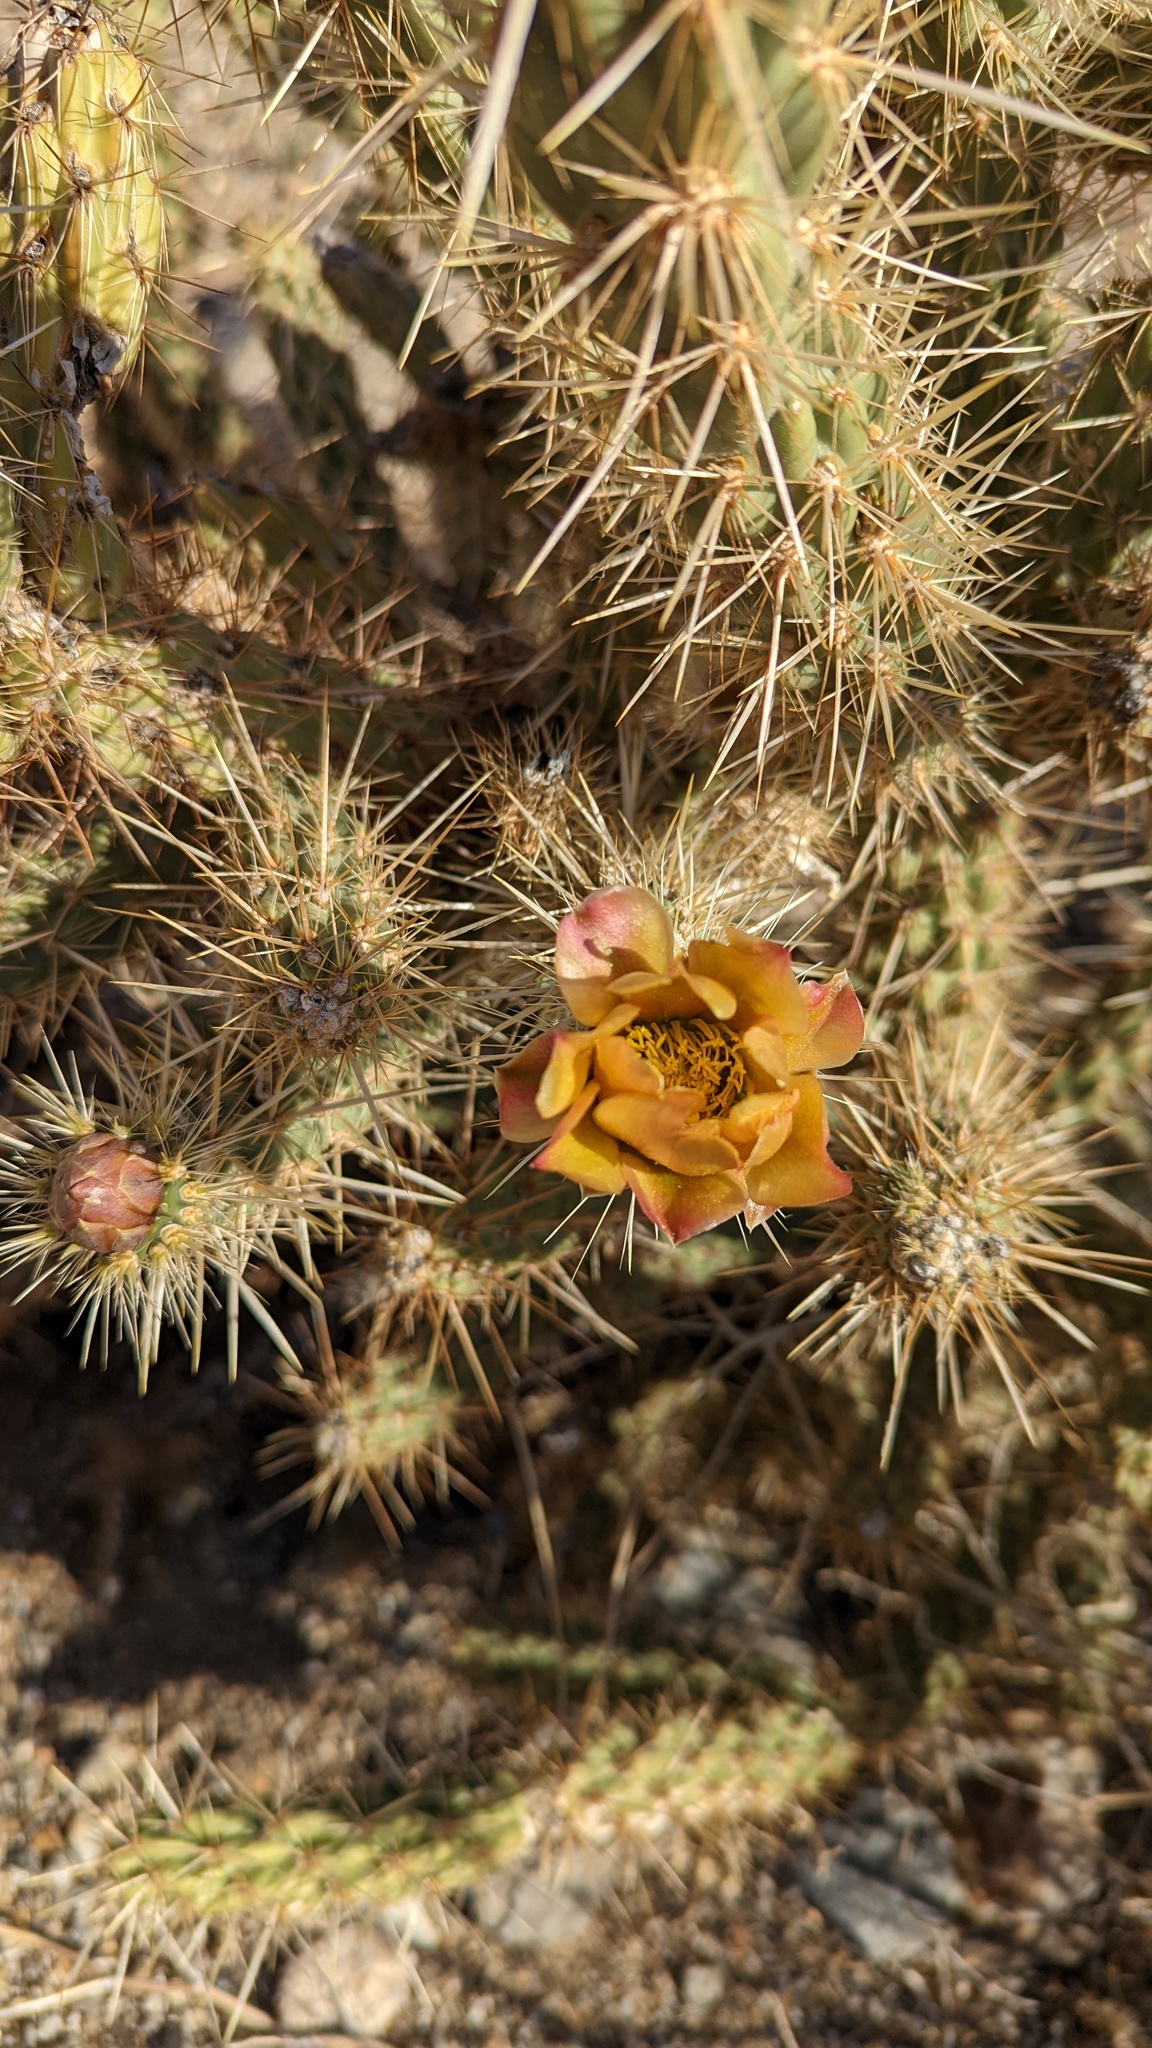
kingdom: Plantae
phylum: Tracheophyta
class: Magnoliopsida
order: Caryophyllales
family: Cactaceae
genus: Cylindropuntia
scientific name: Cylindropuntia ganderi
